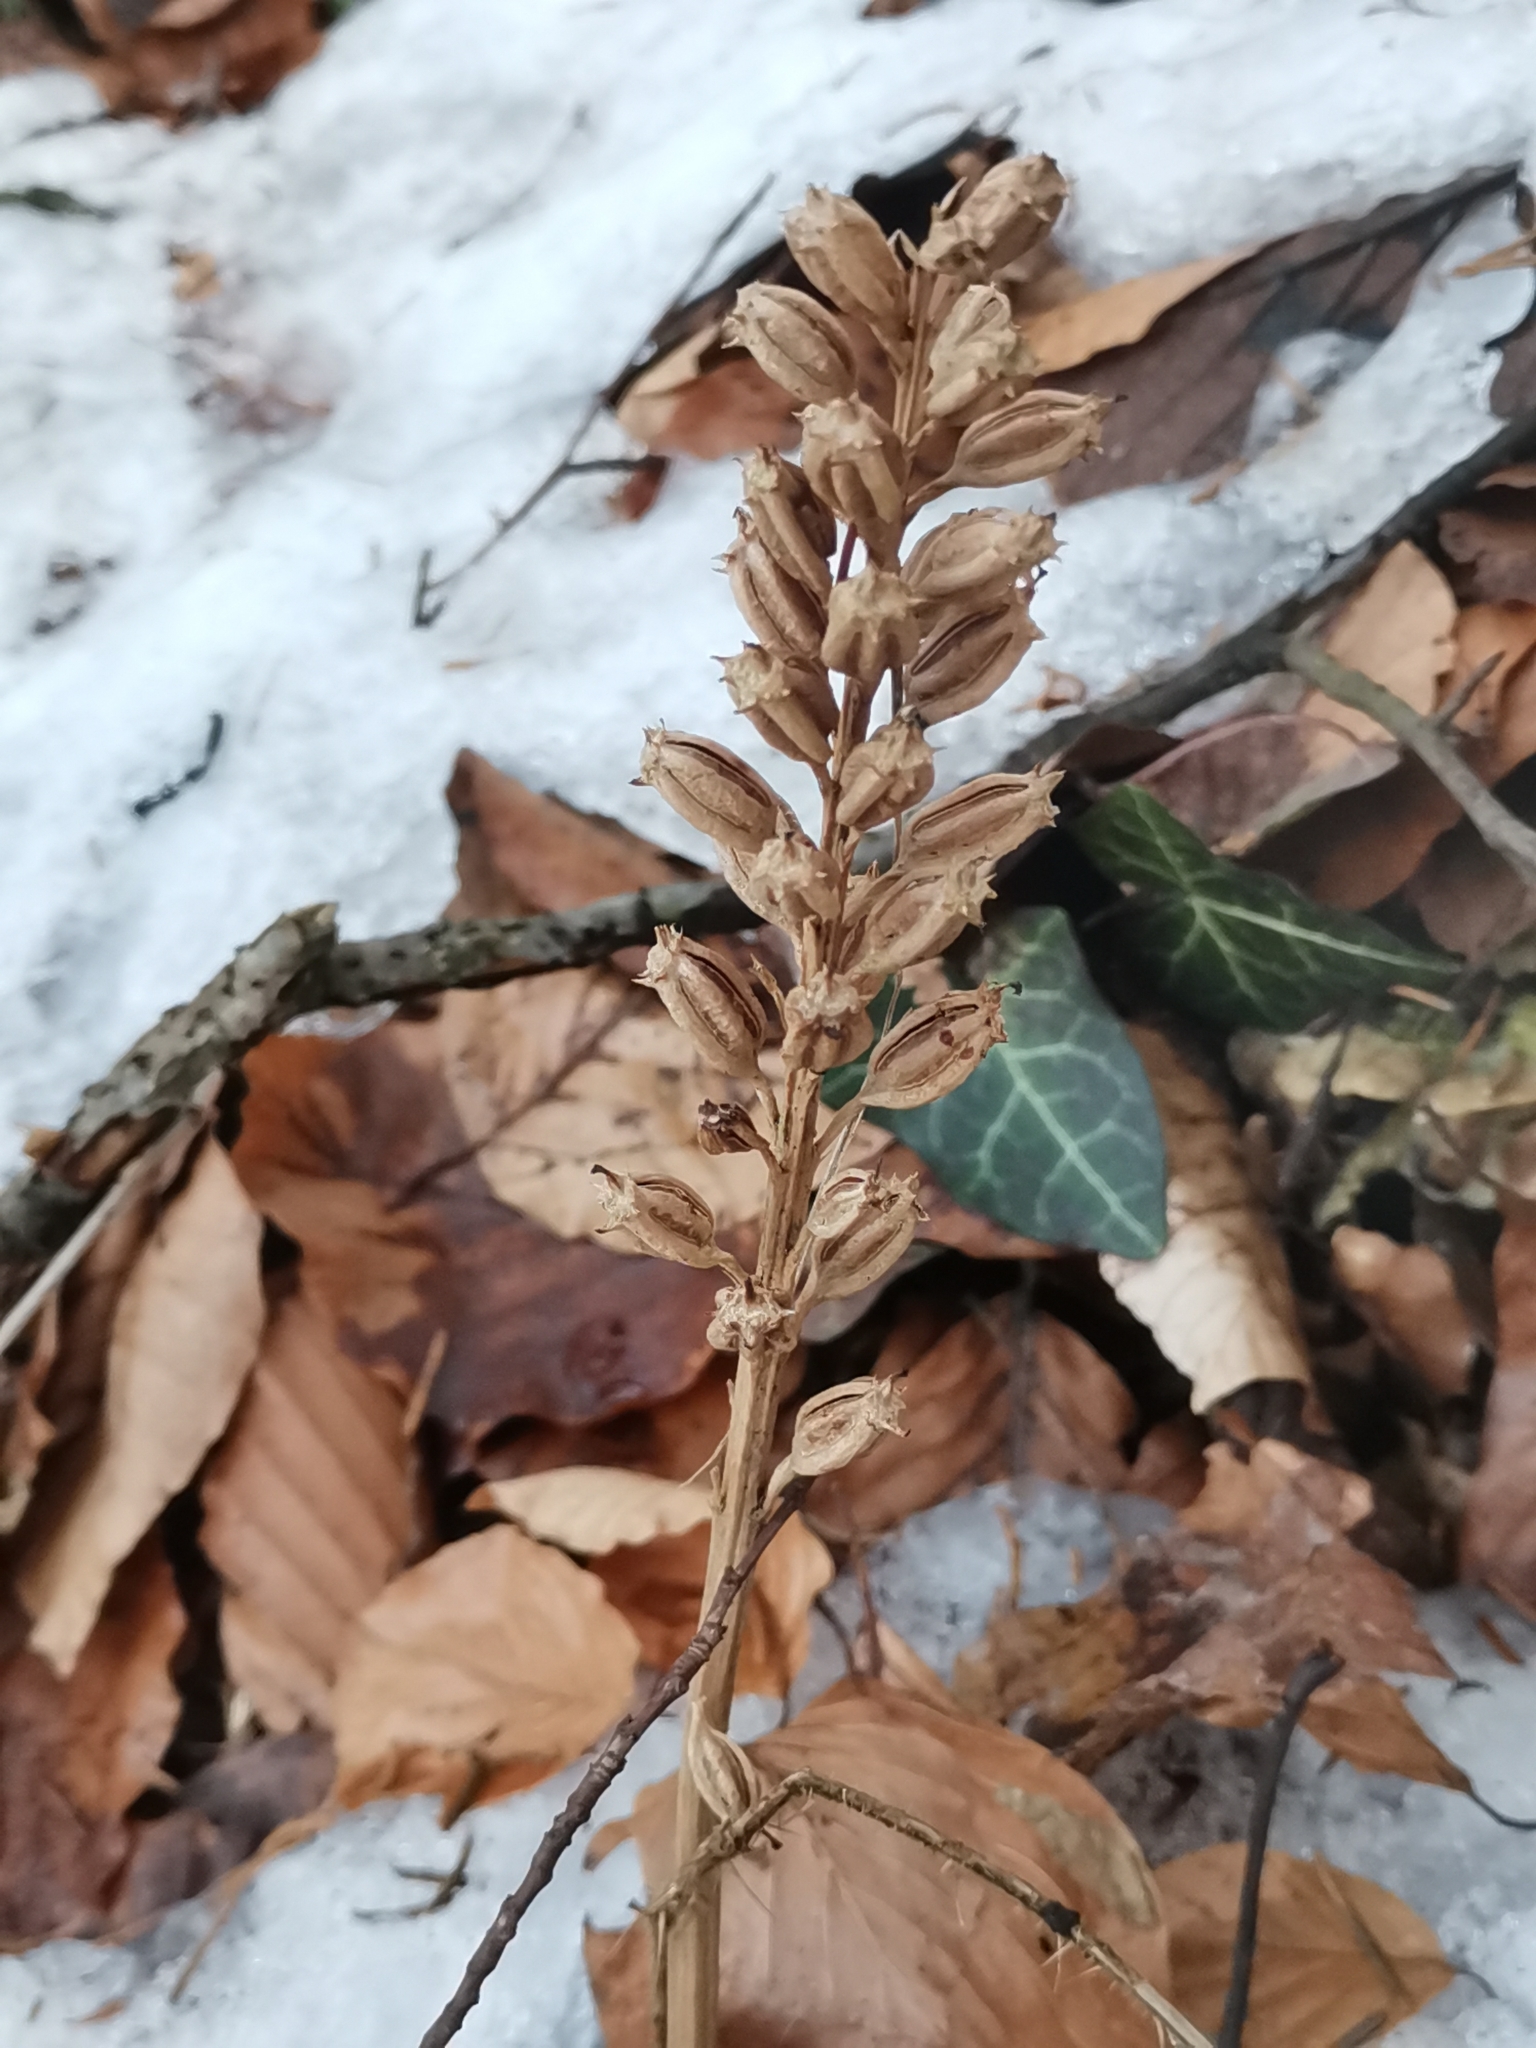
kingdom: Plantae
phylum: Tracheophyta
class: Liliopsida
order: Asparagales
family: Orchidaceae
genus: Neottia
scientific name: Neottia nidus-avis
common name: Bird's-nest orchid
